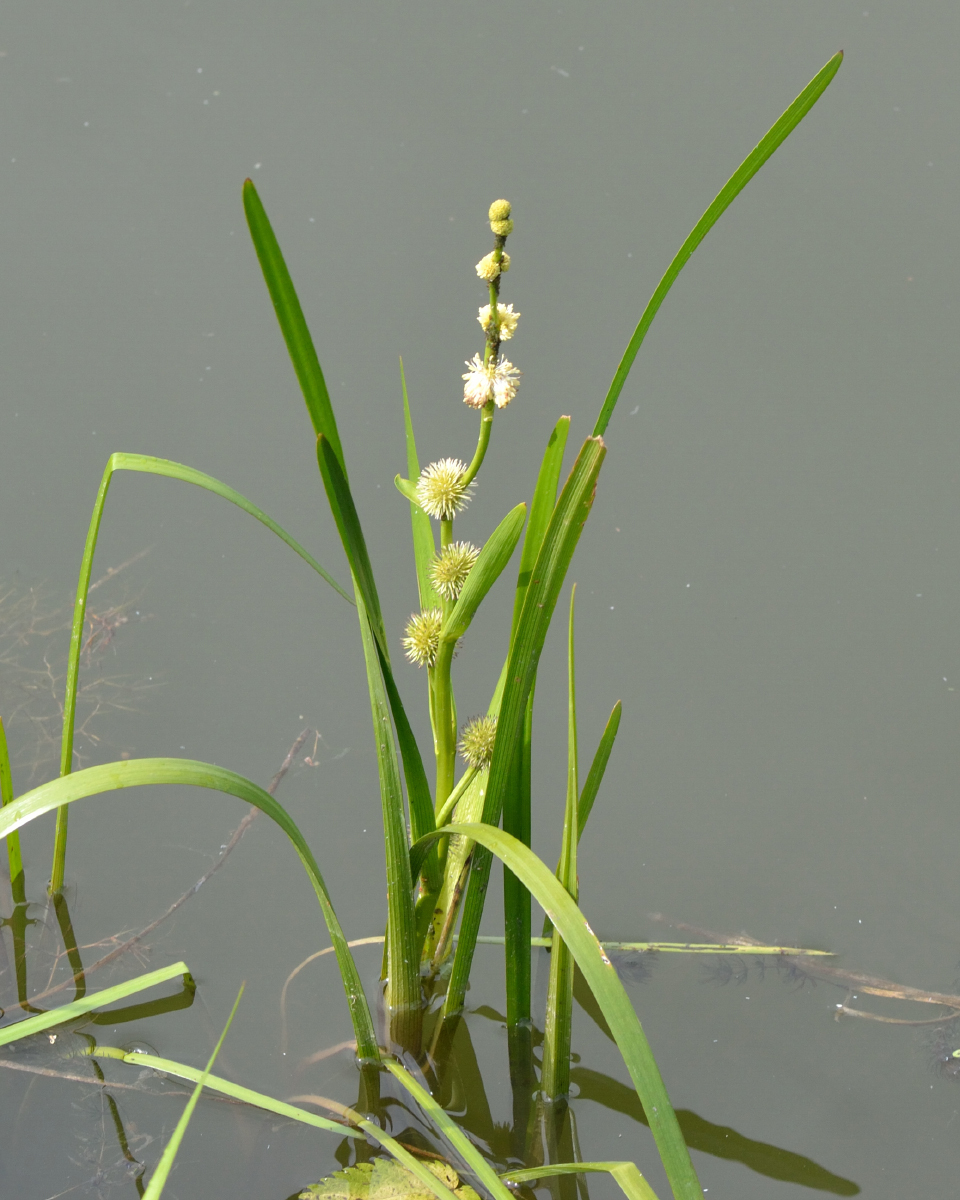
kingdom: Plantae
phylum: Tracheophyta
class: Liliopsida
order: Poales
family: Typhaceae
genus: Sparganium
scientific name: Sparganium emersum
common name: Unbranched bur-reed
